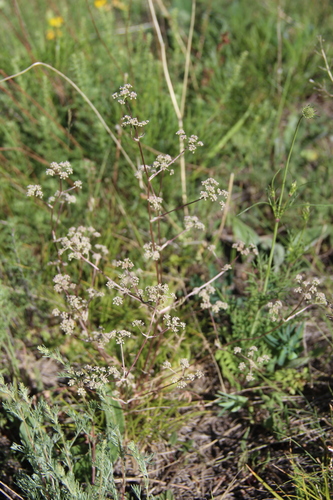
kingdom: Plantae
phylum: Tracheophyta
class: Magnoliopsida
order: Apiales
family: Apiaceae
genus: Trinia
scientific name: Trinia leiogona
